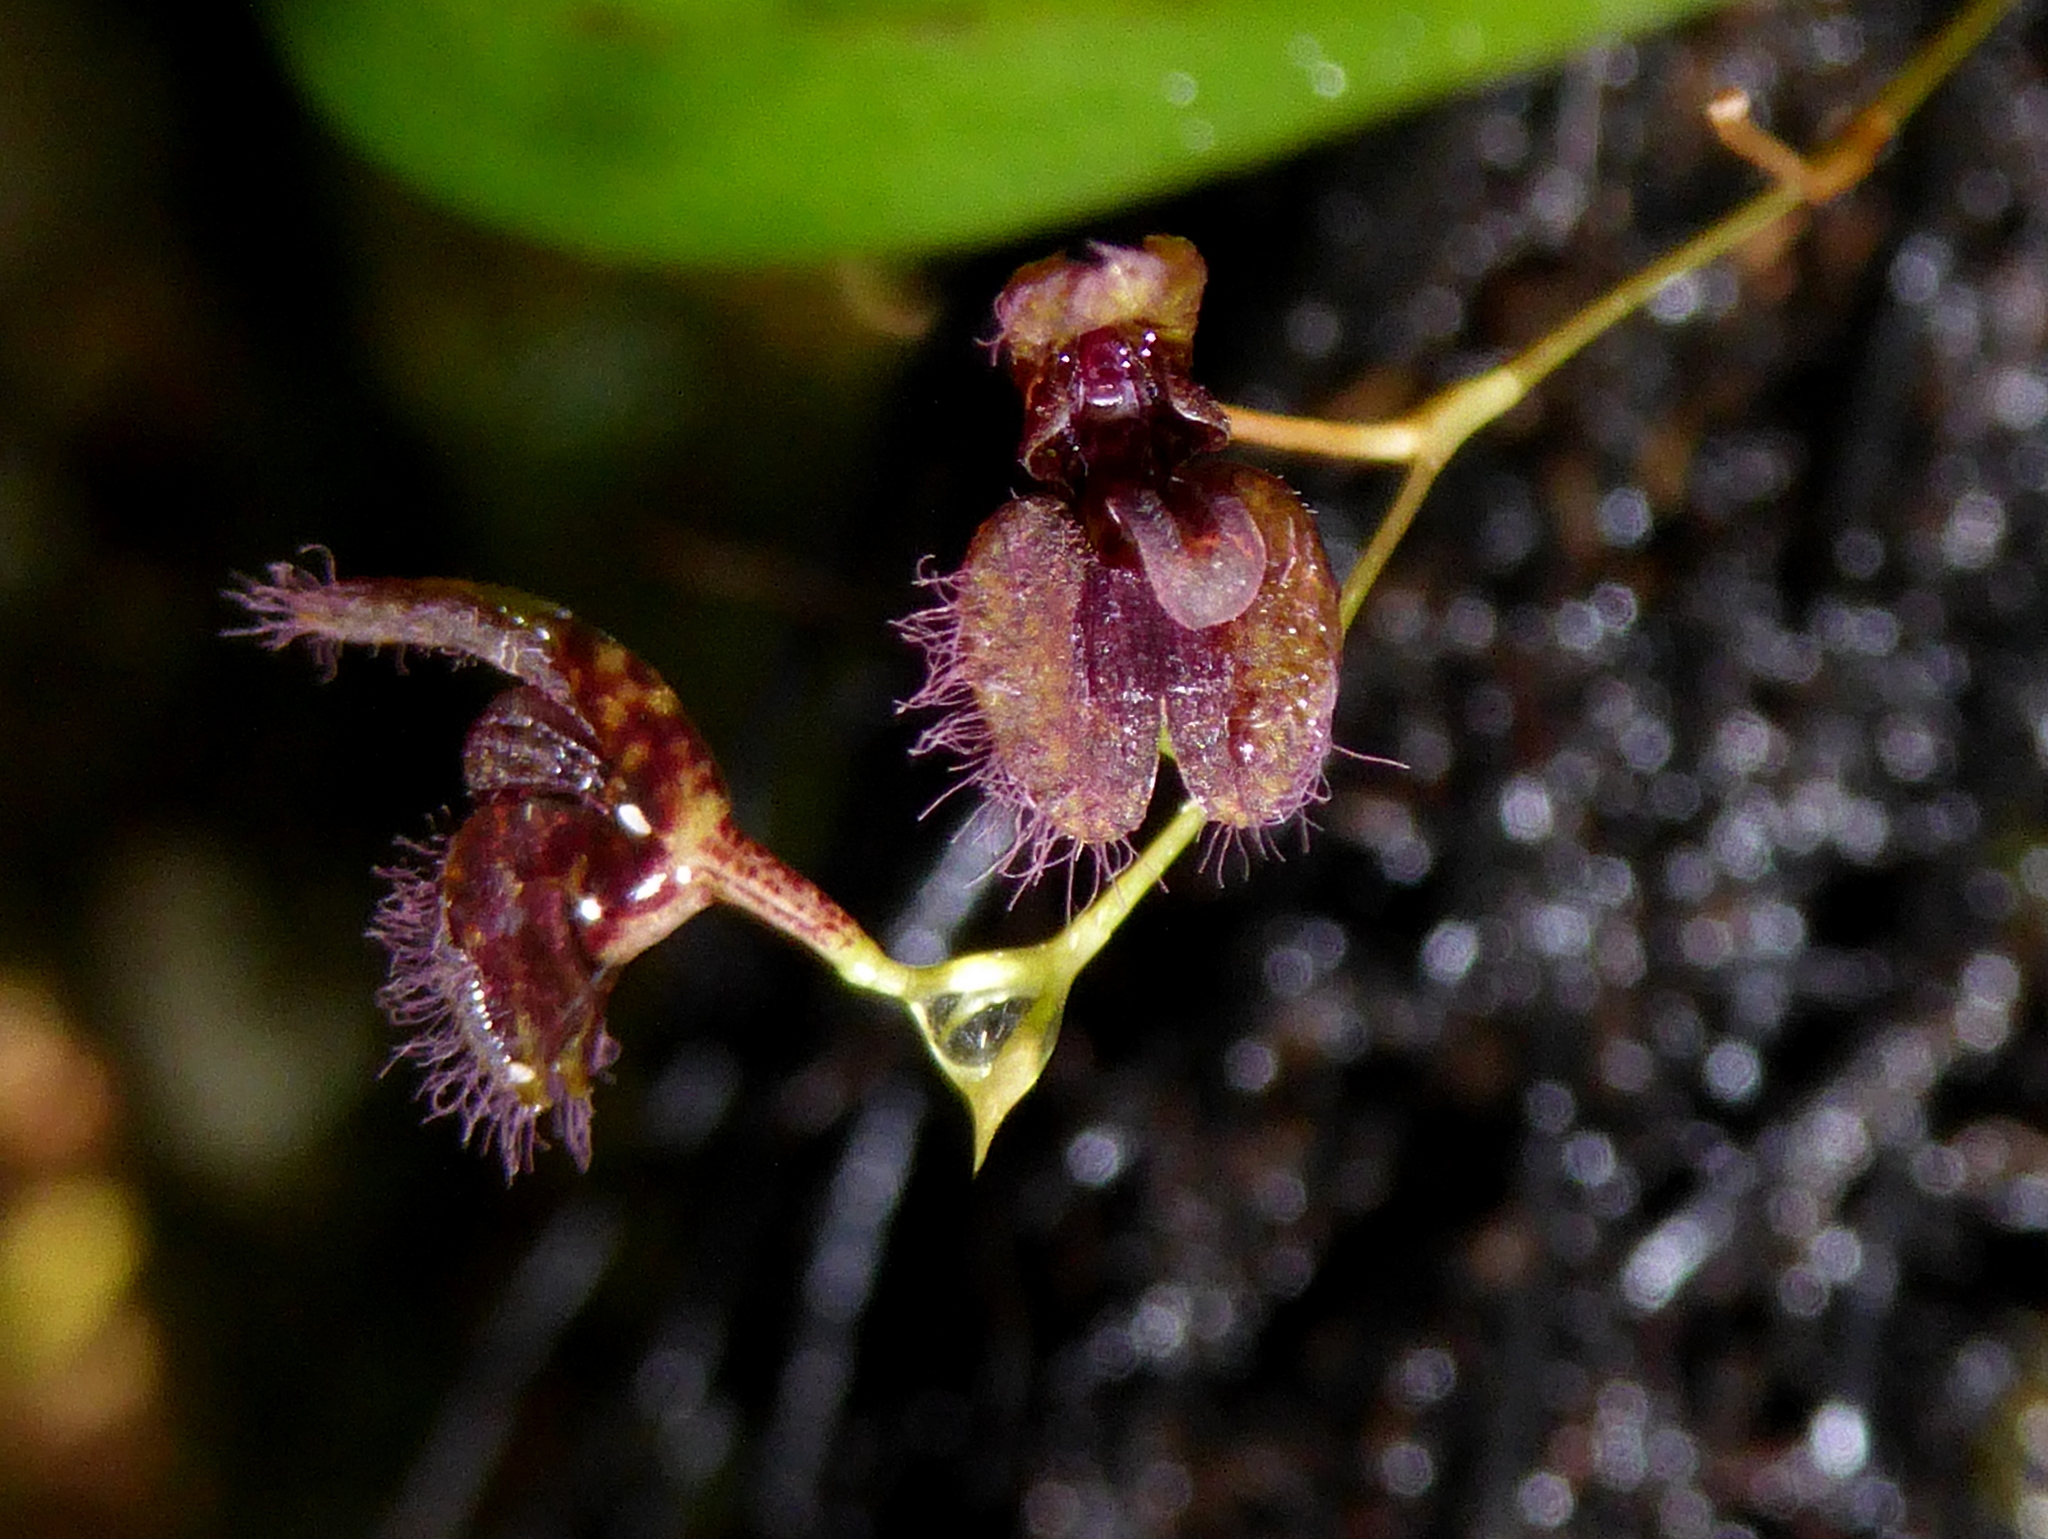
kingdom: Plantae
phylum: Tracheophyta
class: Liliopsida
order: Asparagales
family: Orchidaceae
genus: Stelis
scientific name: Stelis villosa
